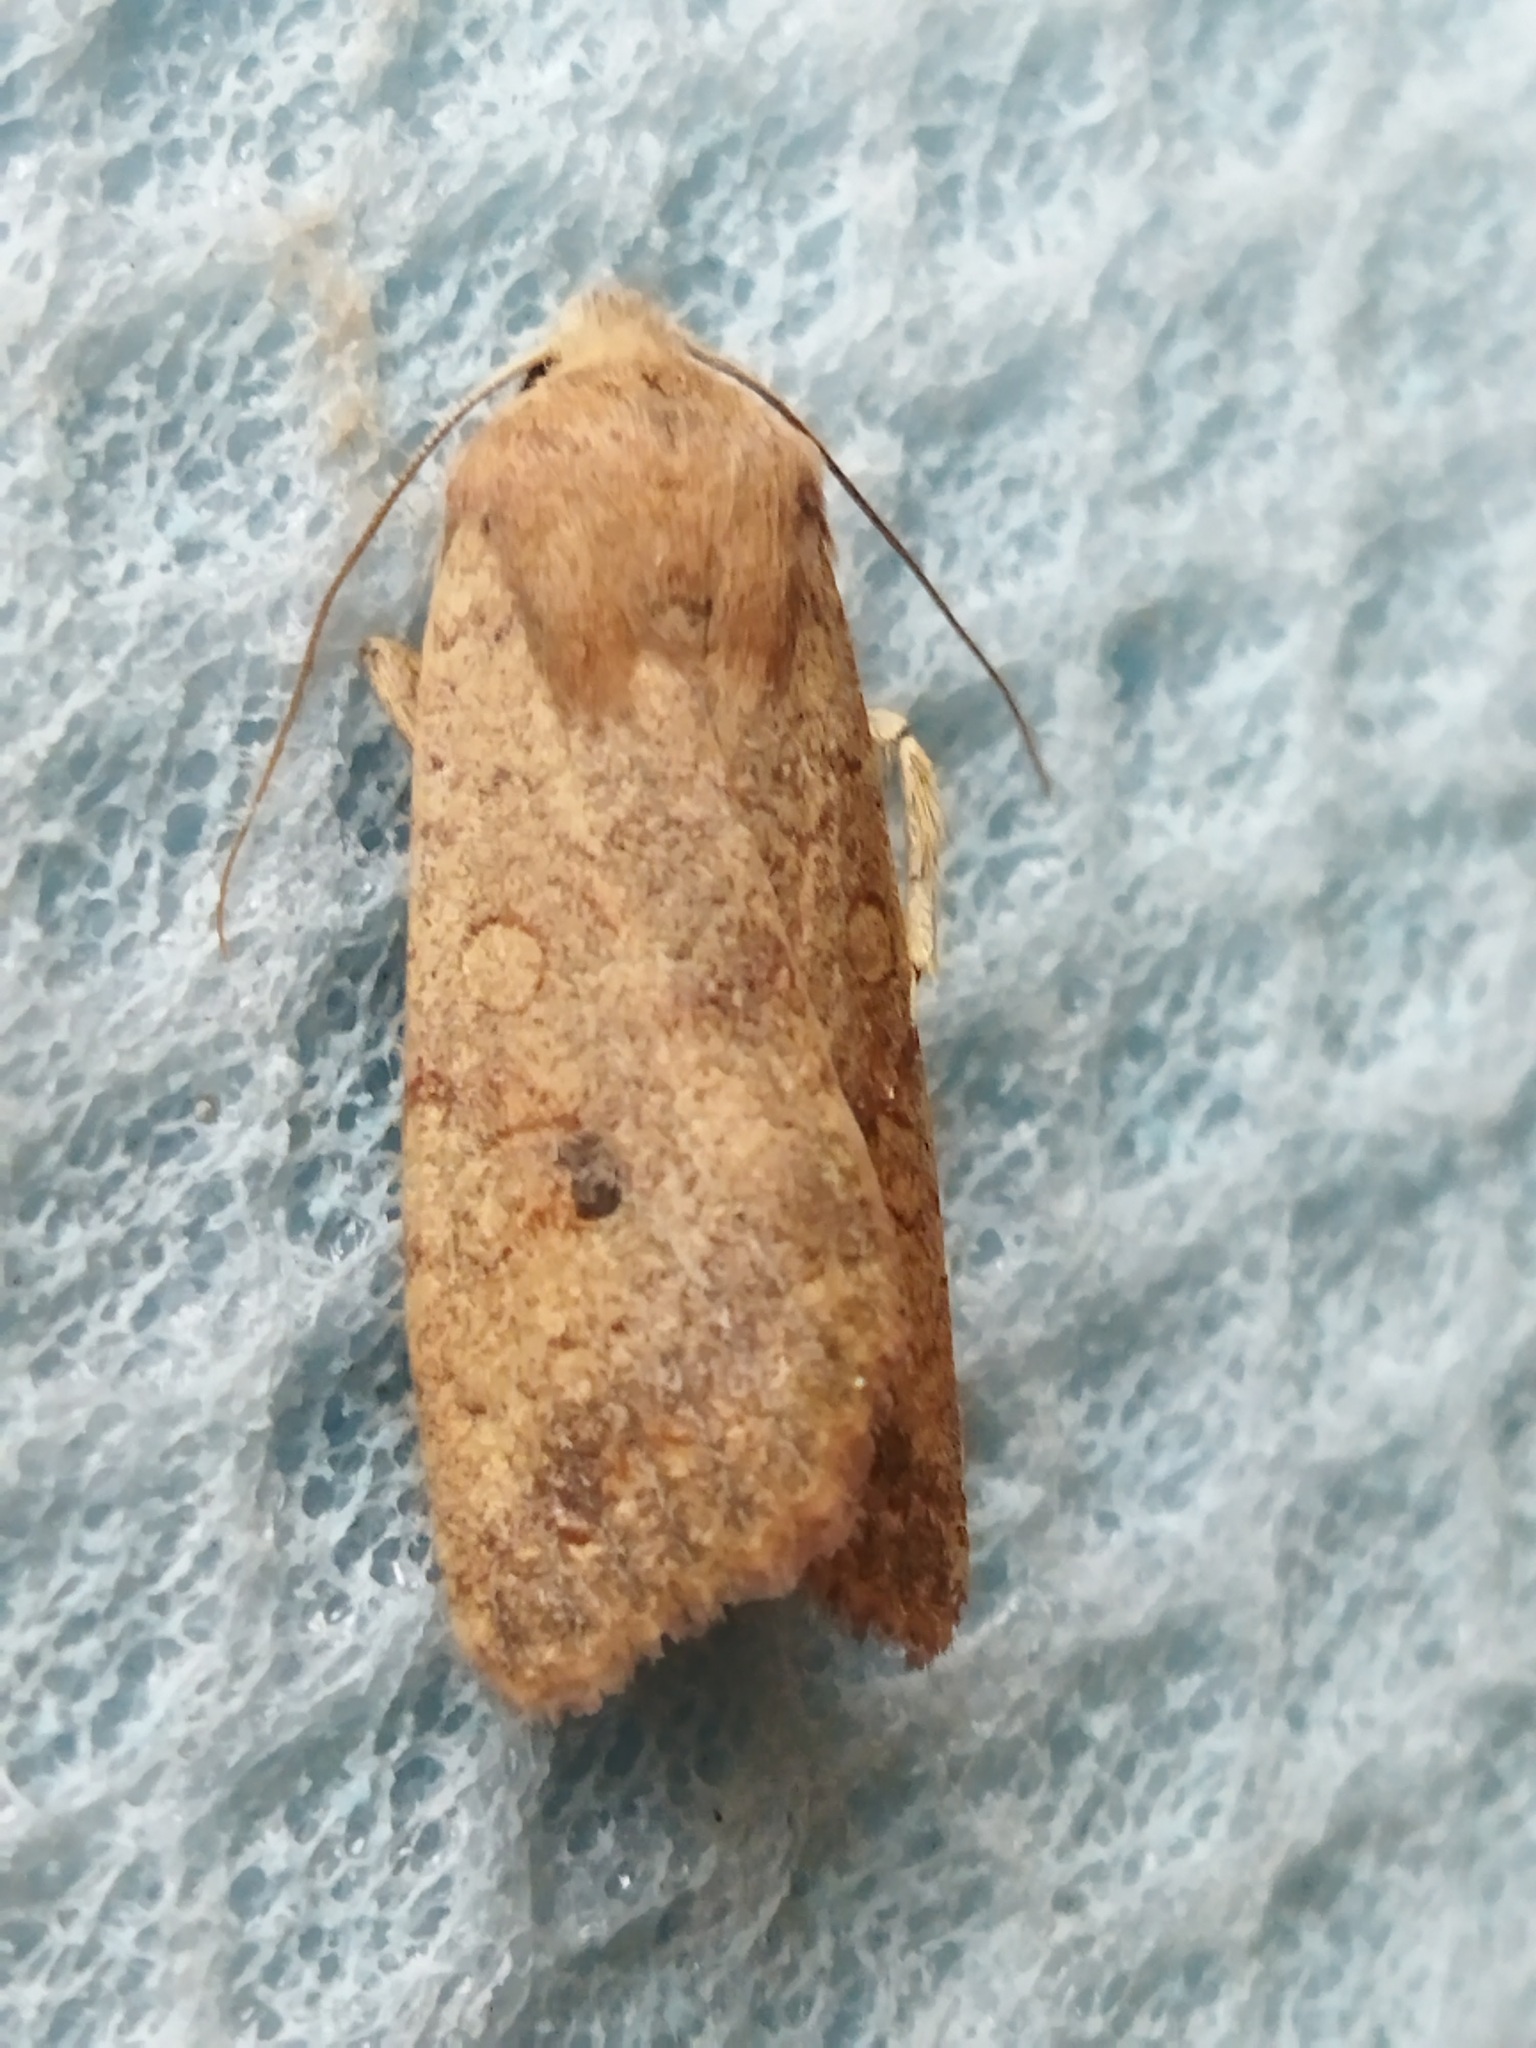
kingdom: Animalia
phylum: Arthropoda
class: Insecta
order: Lepidoptera
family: Noctuidae
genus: Sunira
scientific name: Sunira circellaris
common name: Brick
